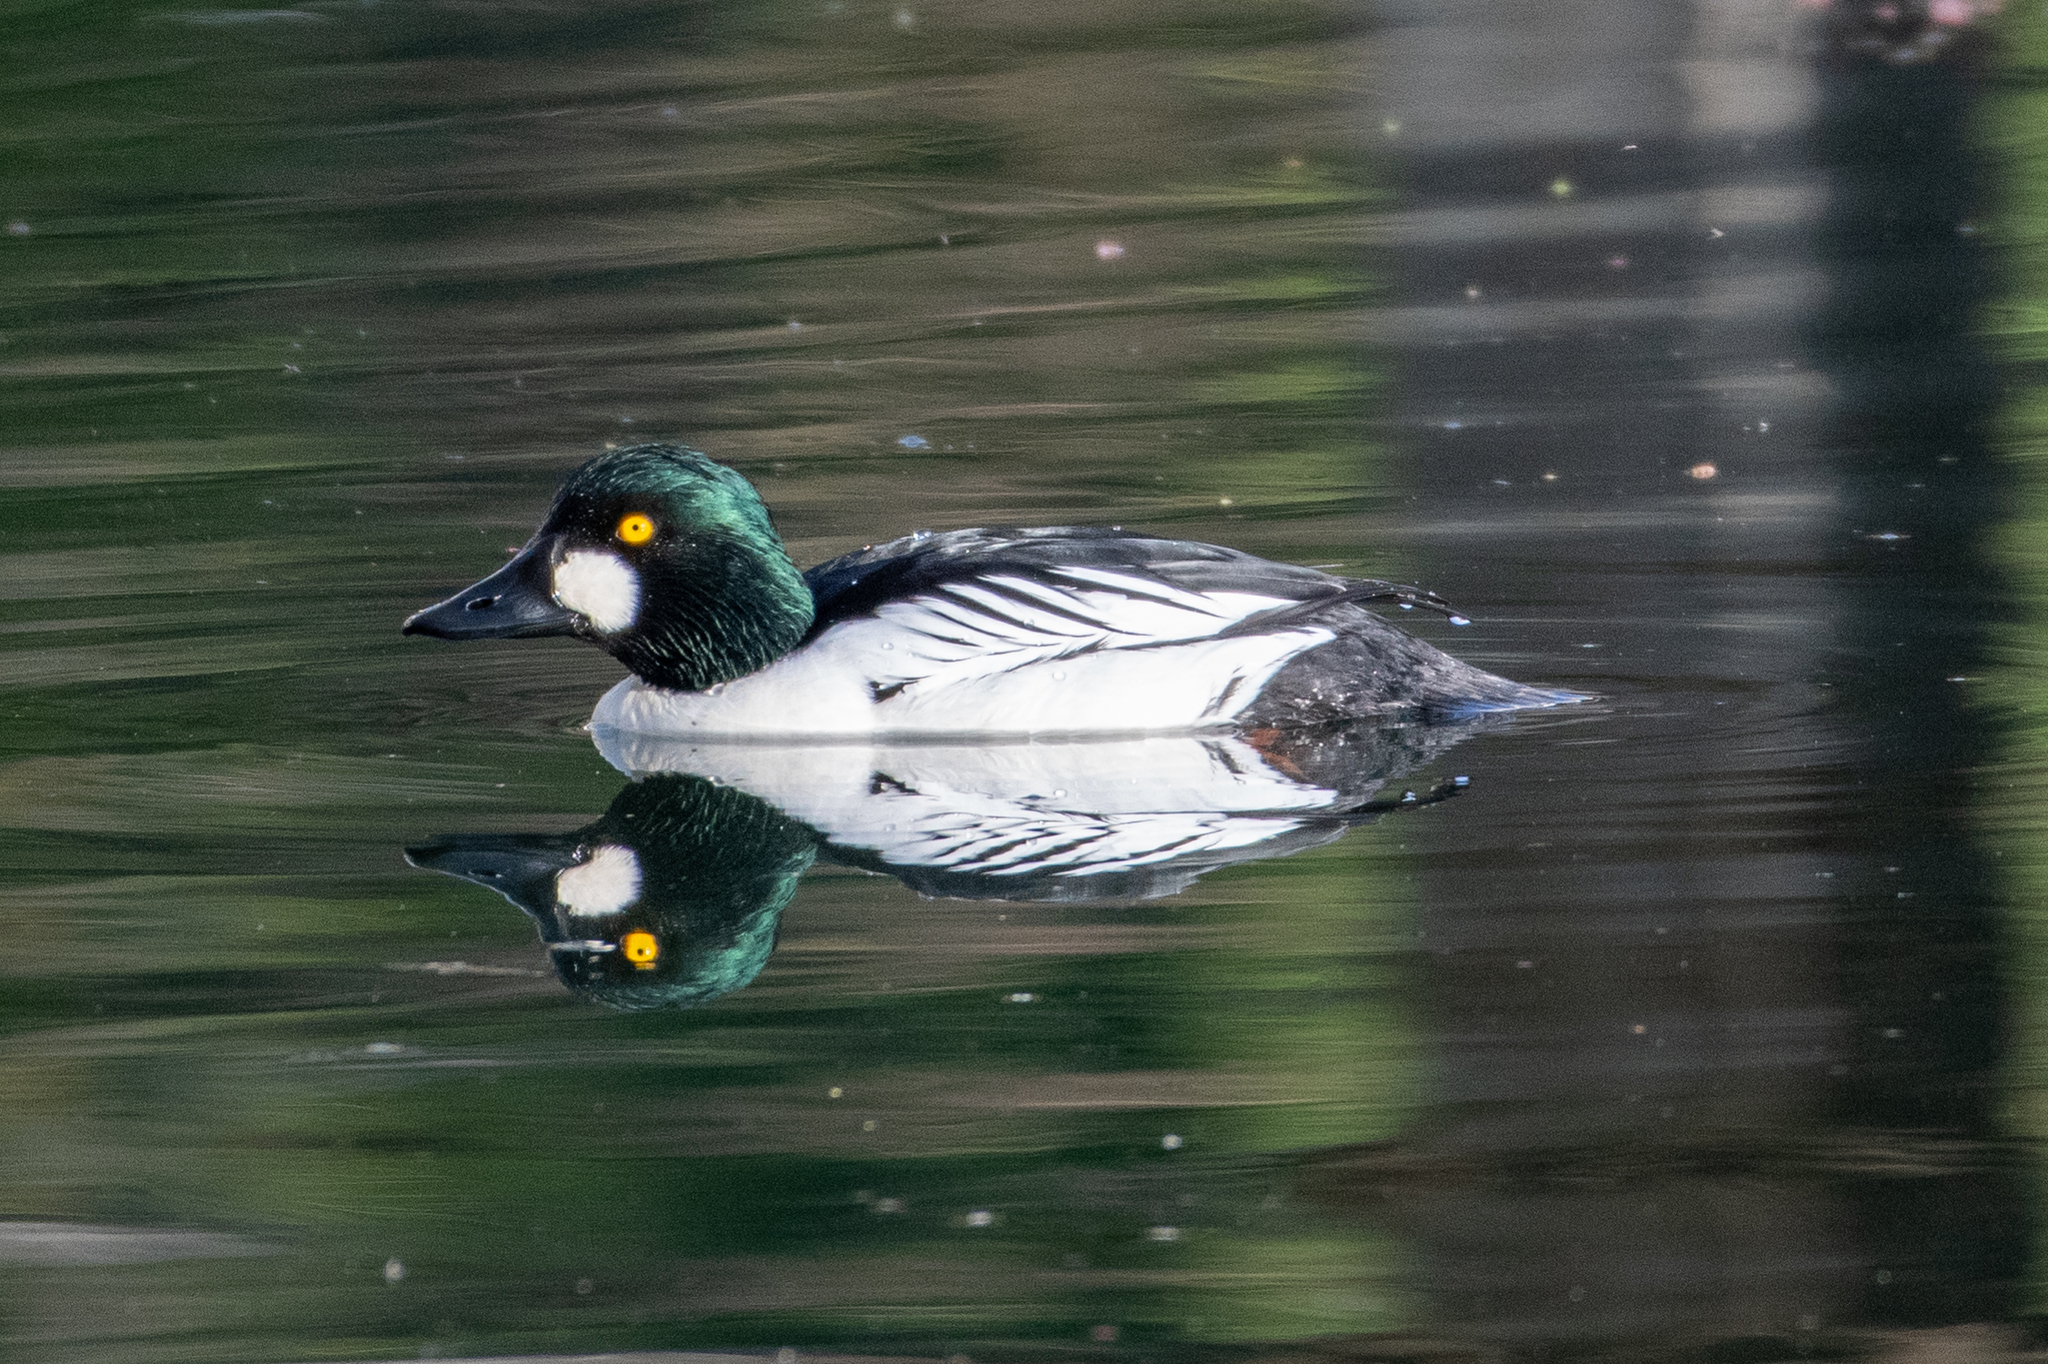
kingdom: Animalia
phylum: Chordata
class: Aves
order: Anseriformes
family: Anatidae
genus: Bucephala
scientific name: Bucephala clangula
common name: Common goldeneye
